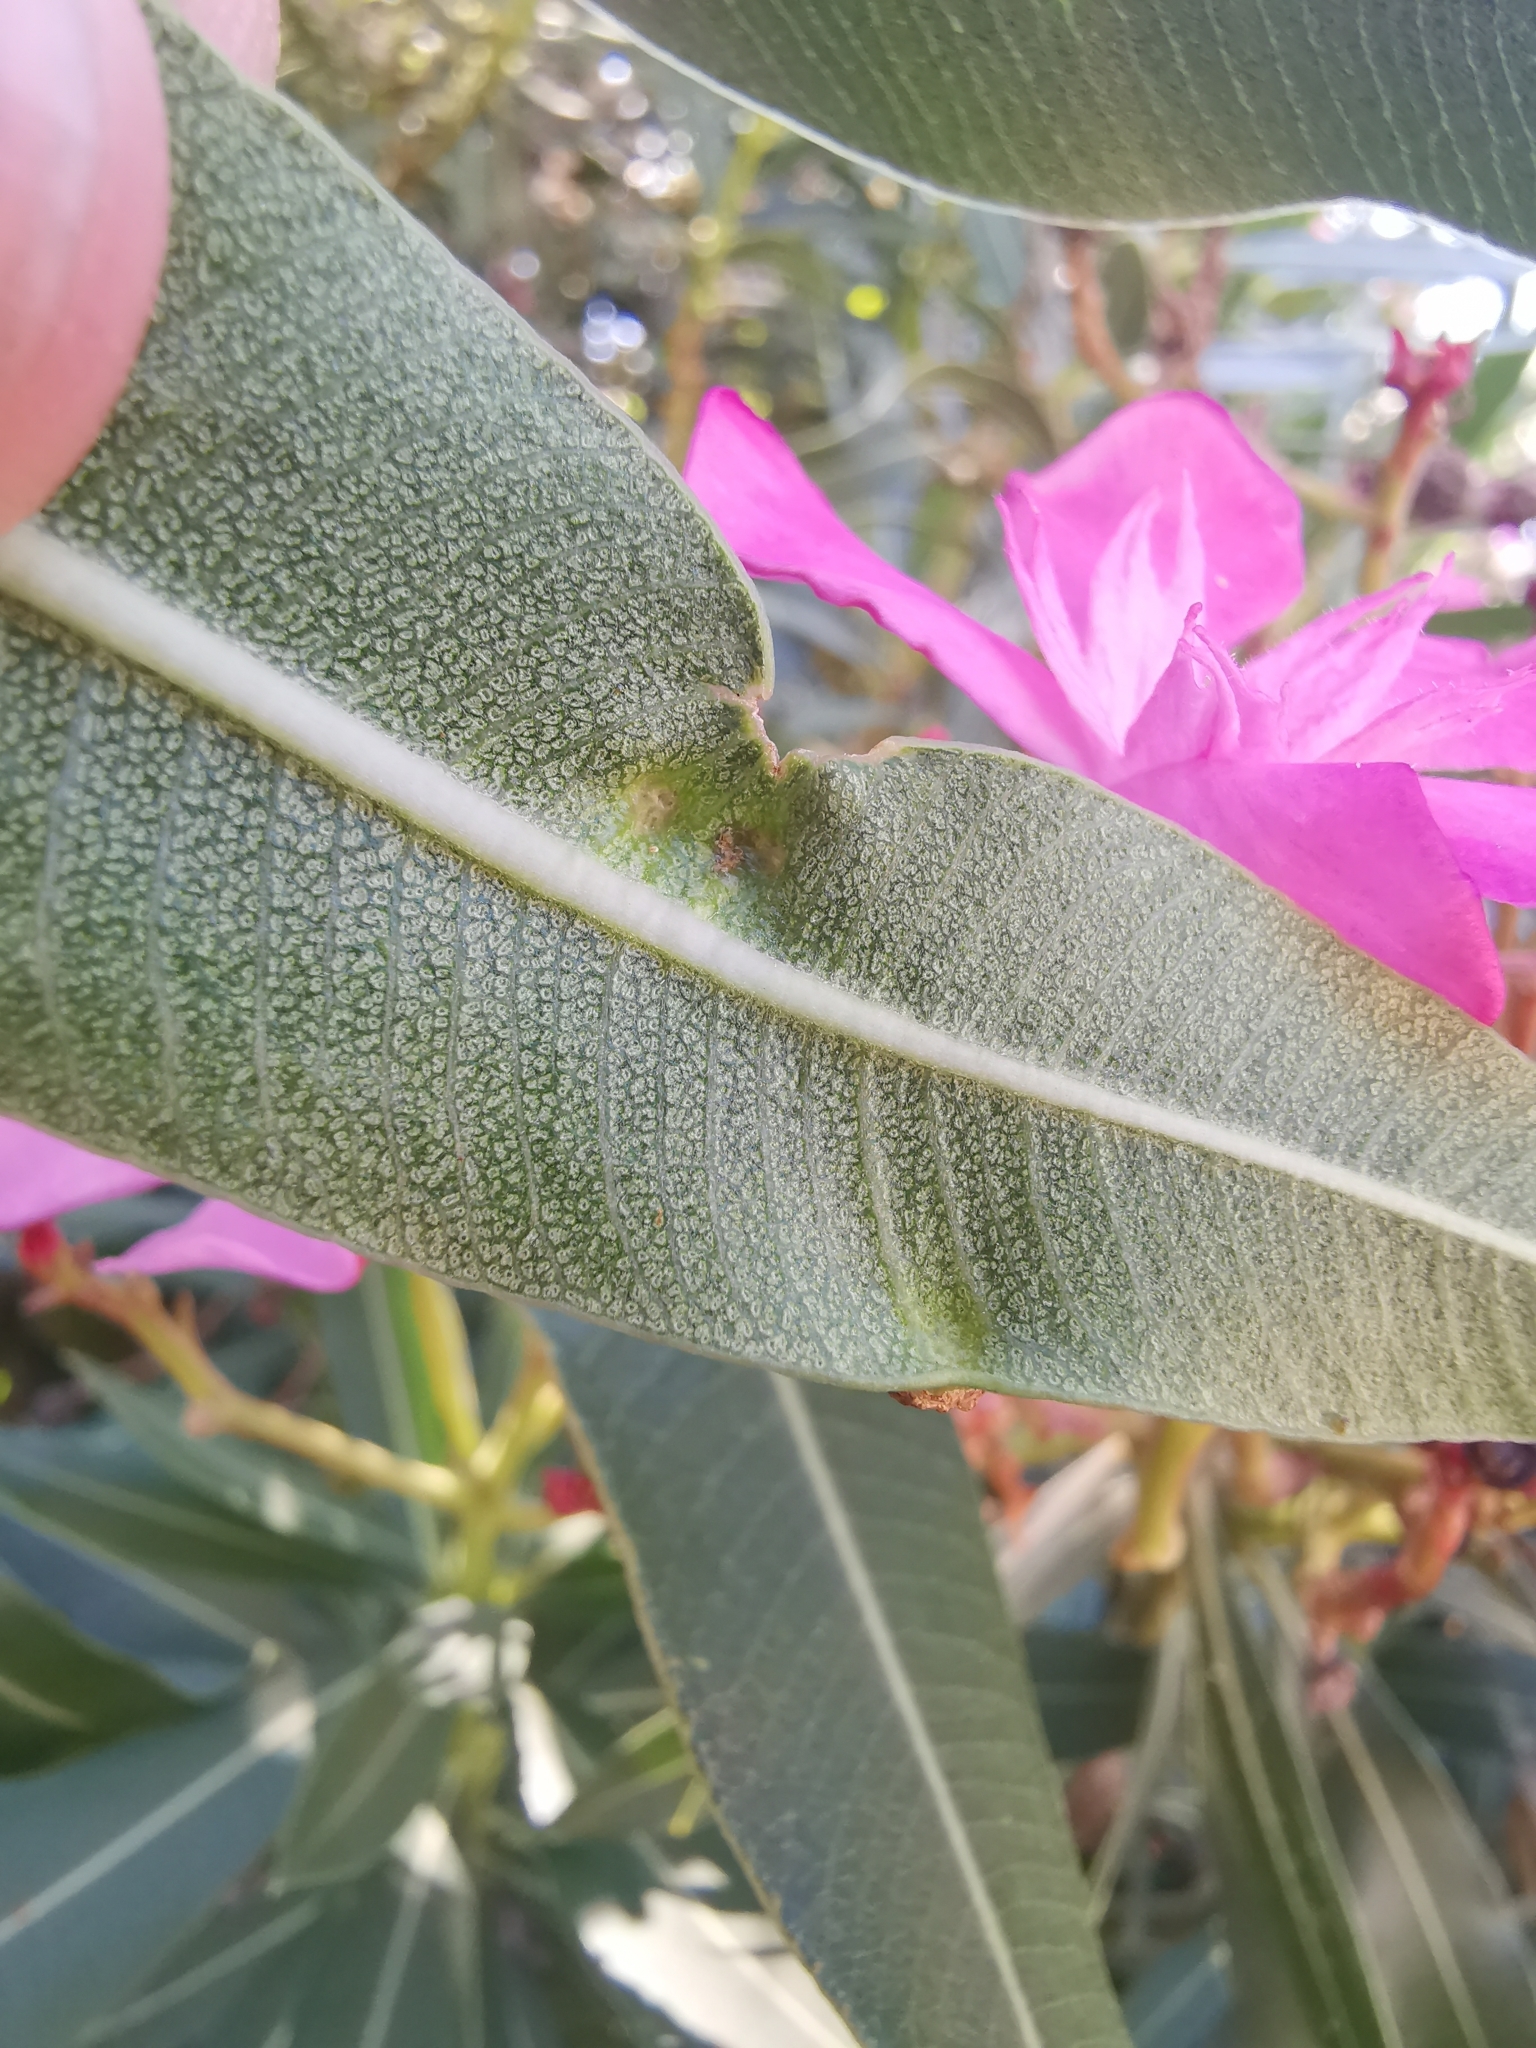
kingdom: Bacteria
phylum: Proteobacteria
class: Gammaproteobacteria
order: Pseudomonadales
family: Pseudomonadaceae
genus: Pseudomonas
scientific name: Pseudomonas
